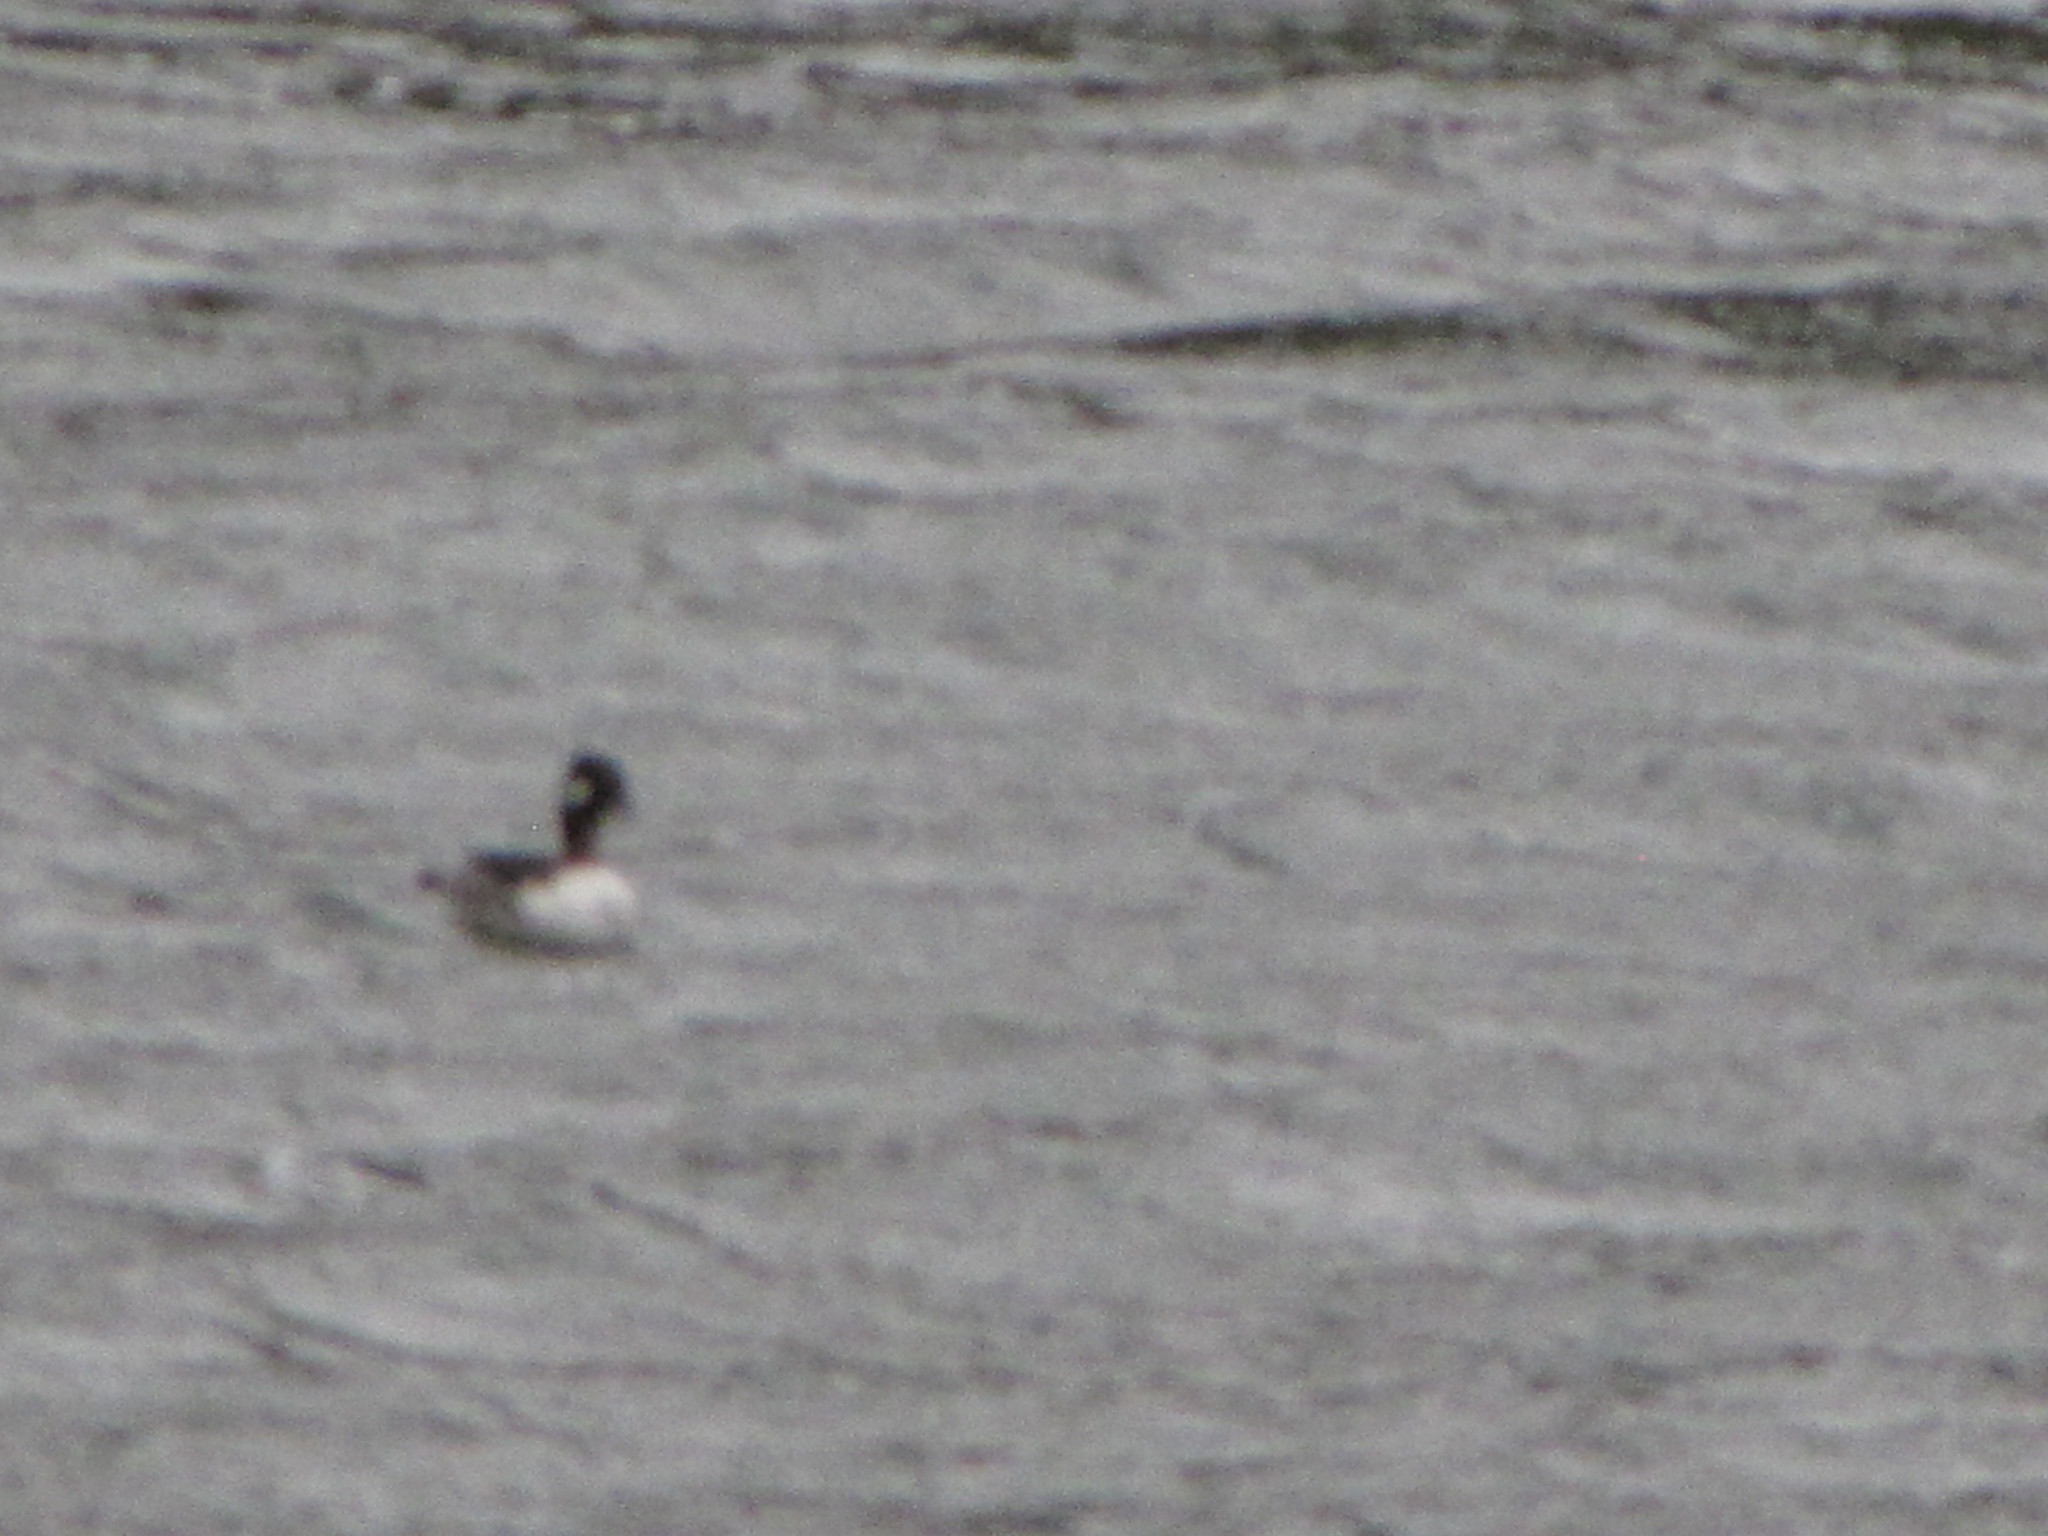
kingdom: Animalia
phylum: Chordata
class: Aves
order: Anseriformes
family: Anatidae
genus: Bucephala
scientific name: Bucephala albeola
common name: Bufflehead
